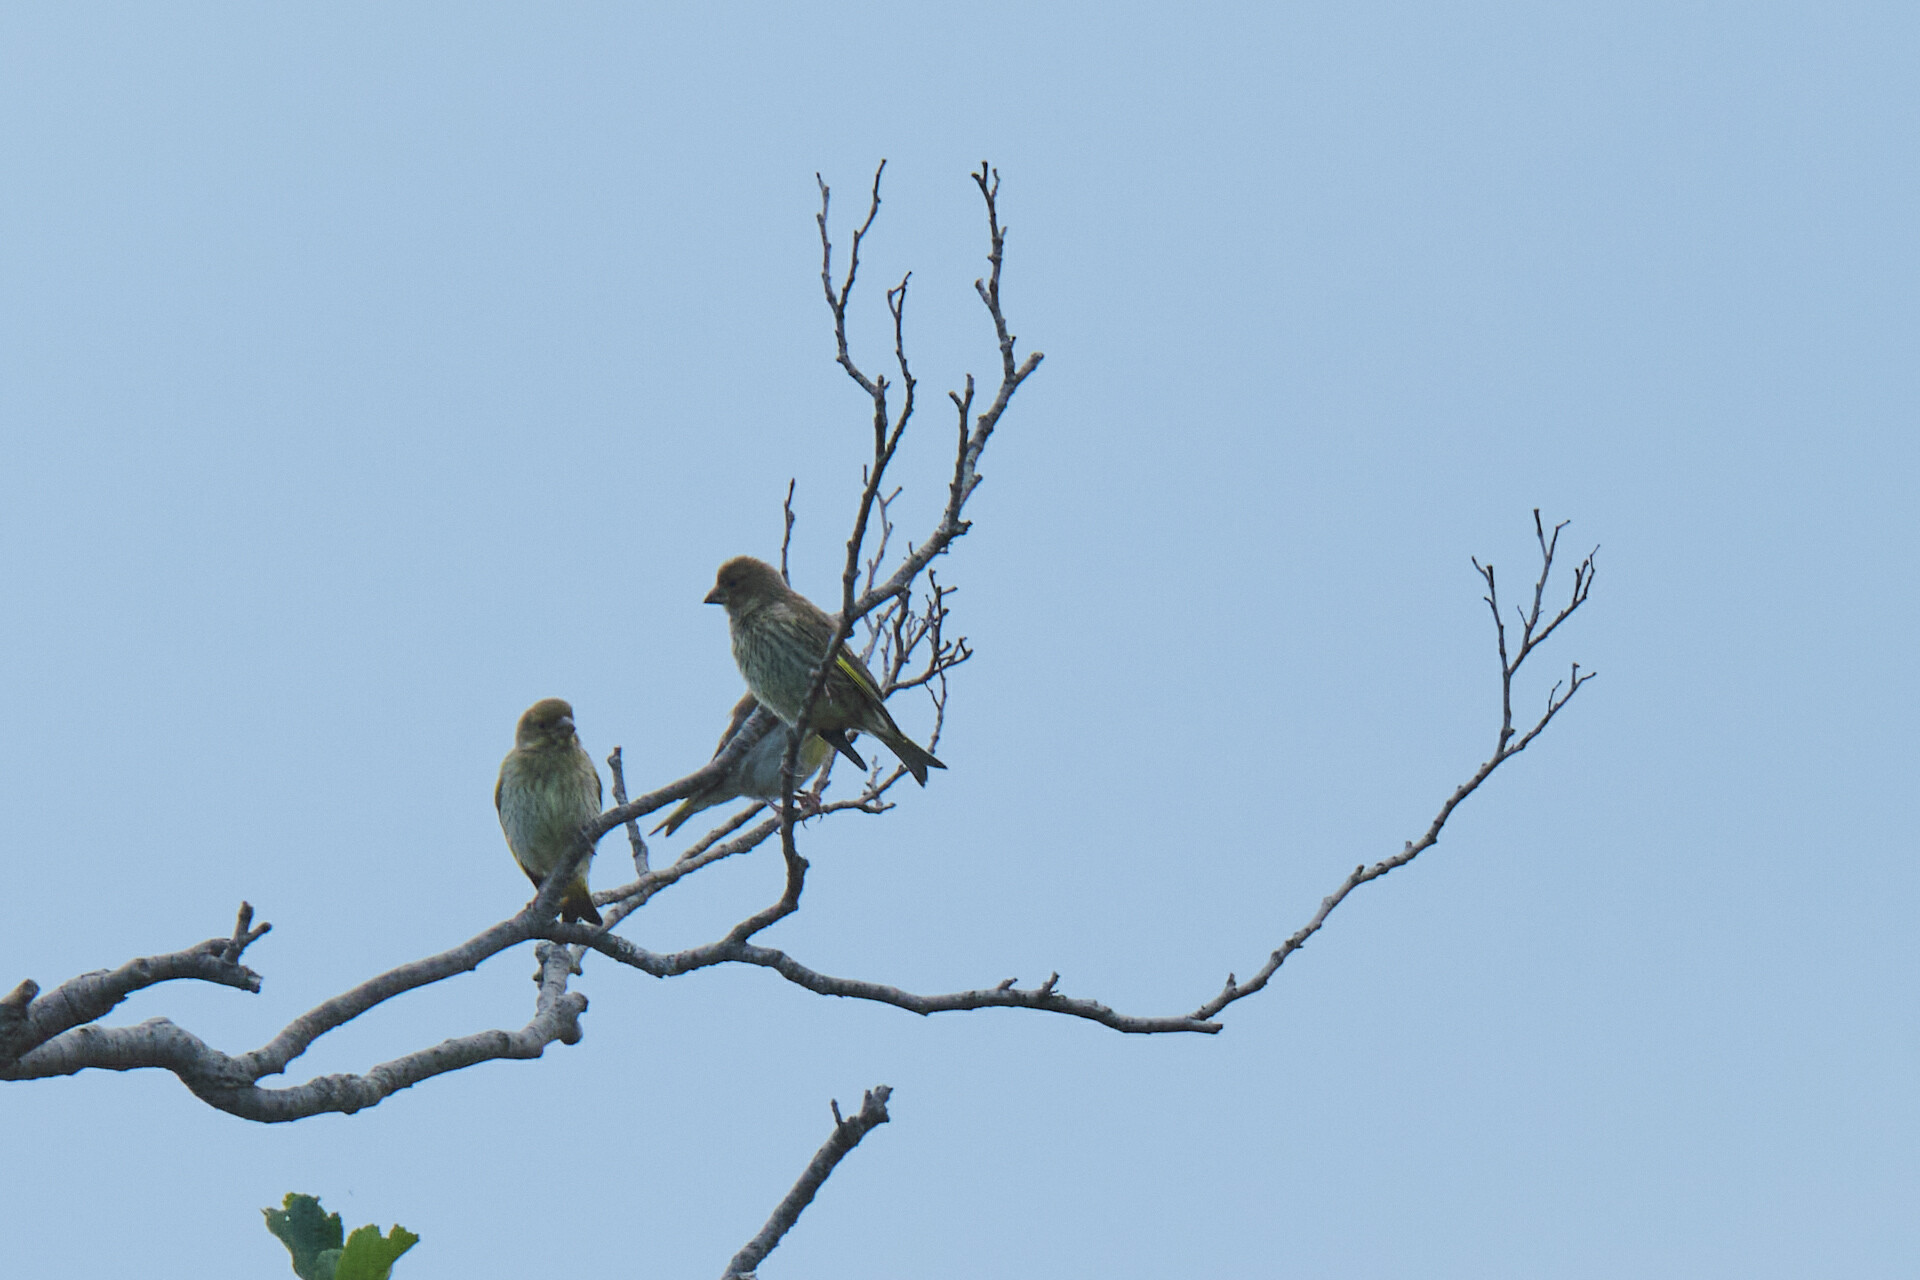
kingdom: Plantae
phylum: Tracheophyta
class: Liliopsida
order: Poales
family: Poaceae
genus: Chloris
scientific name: Chloris chloris
